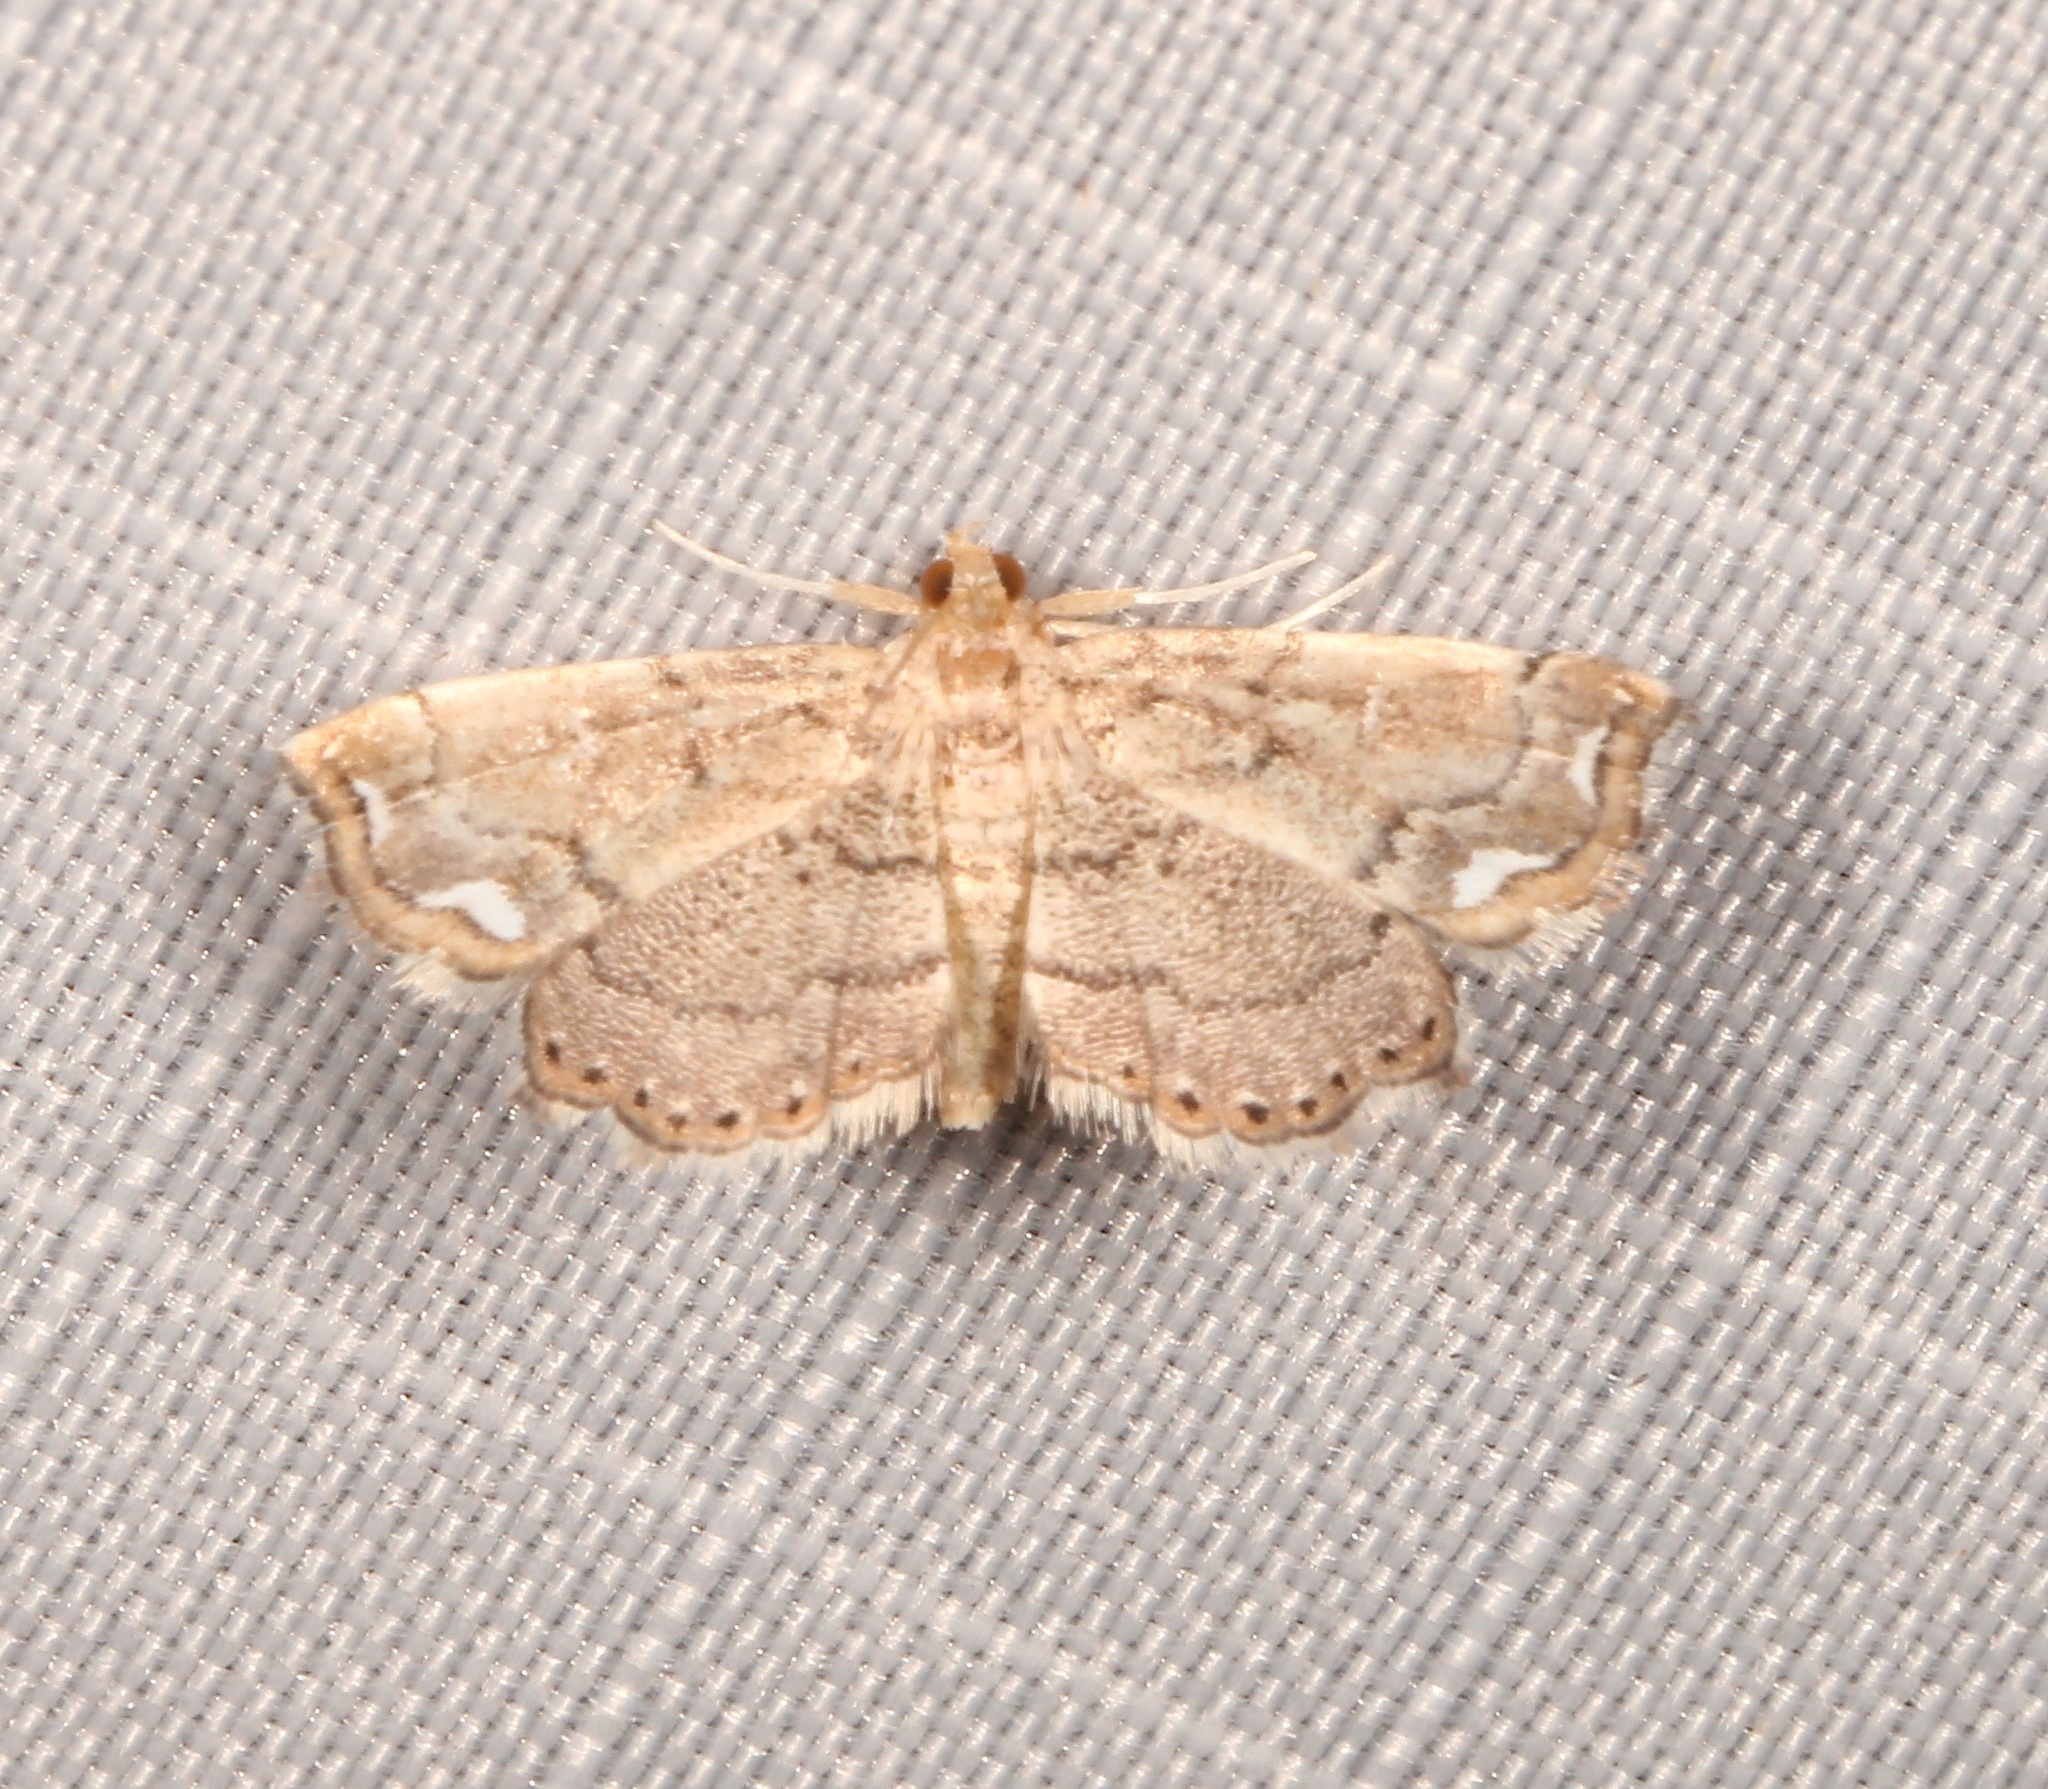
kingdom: Animalia
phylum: Arthropoda
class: Insecta
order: Lepidoptera
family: Pyralidae
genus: Neomusotima
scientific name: Neomusotima conspurcatalis
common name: Lygodium defoliator moth
